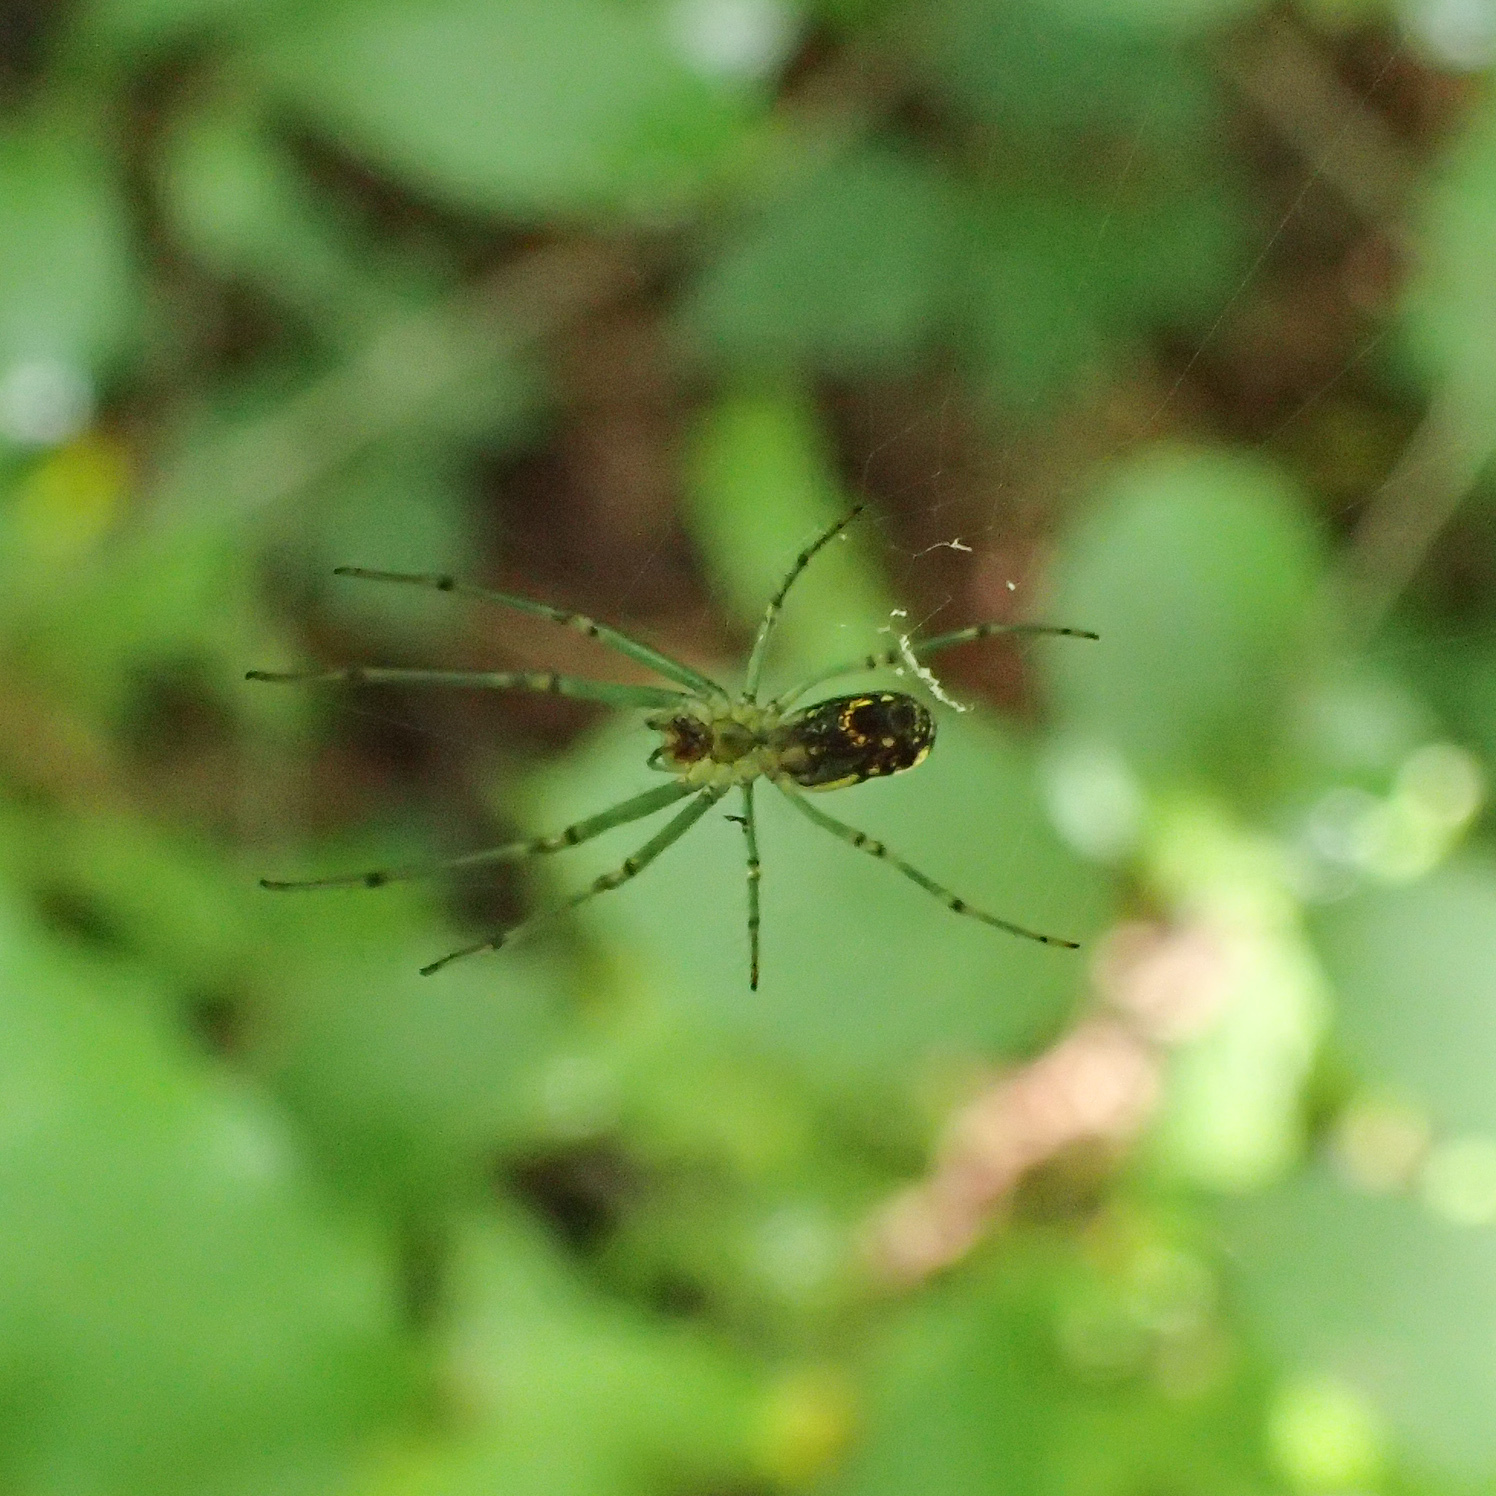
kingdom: Animalia
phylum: Arthropoda
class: Arachnida
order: Araneae
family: Tetragnathidae
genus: Leucauge
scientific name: Leucauge venusta
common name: Longjawed orb weavers
